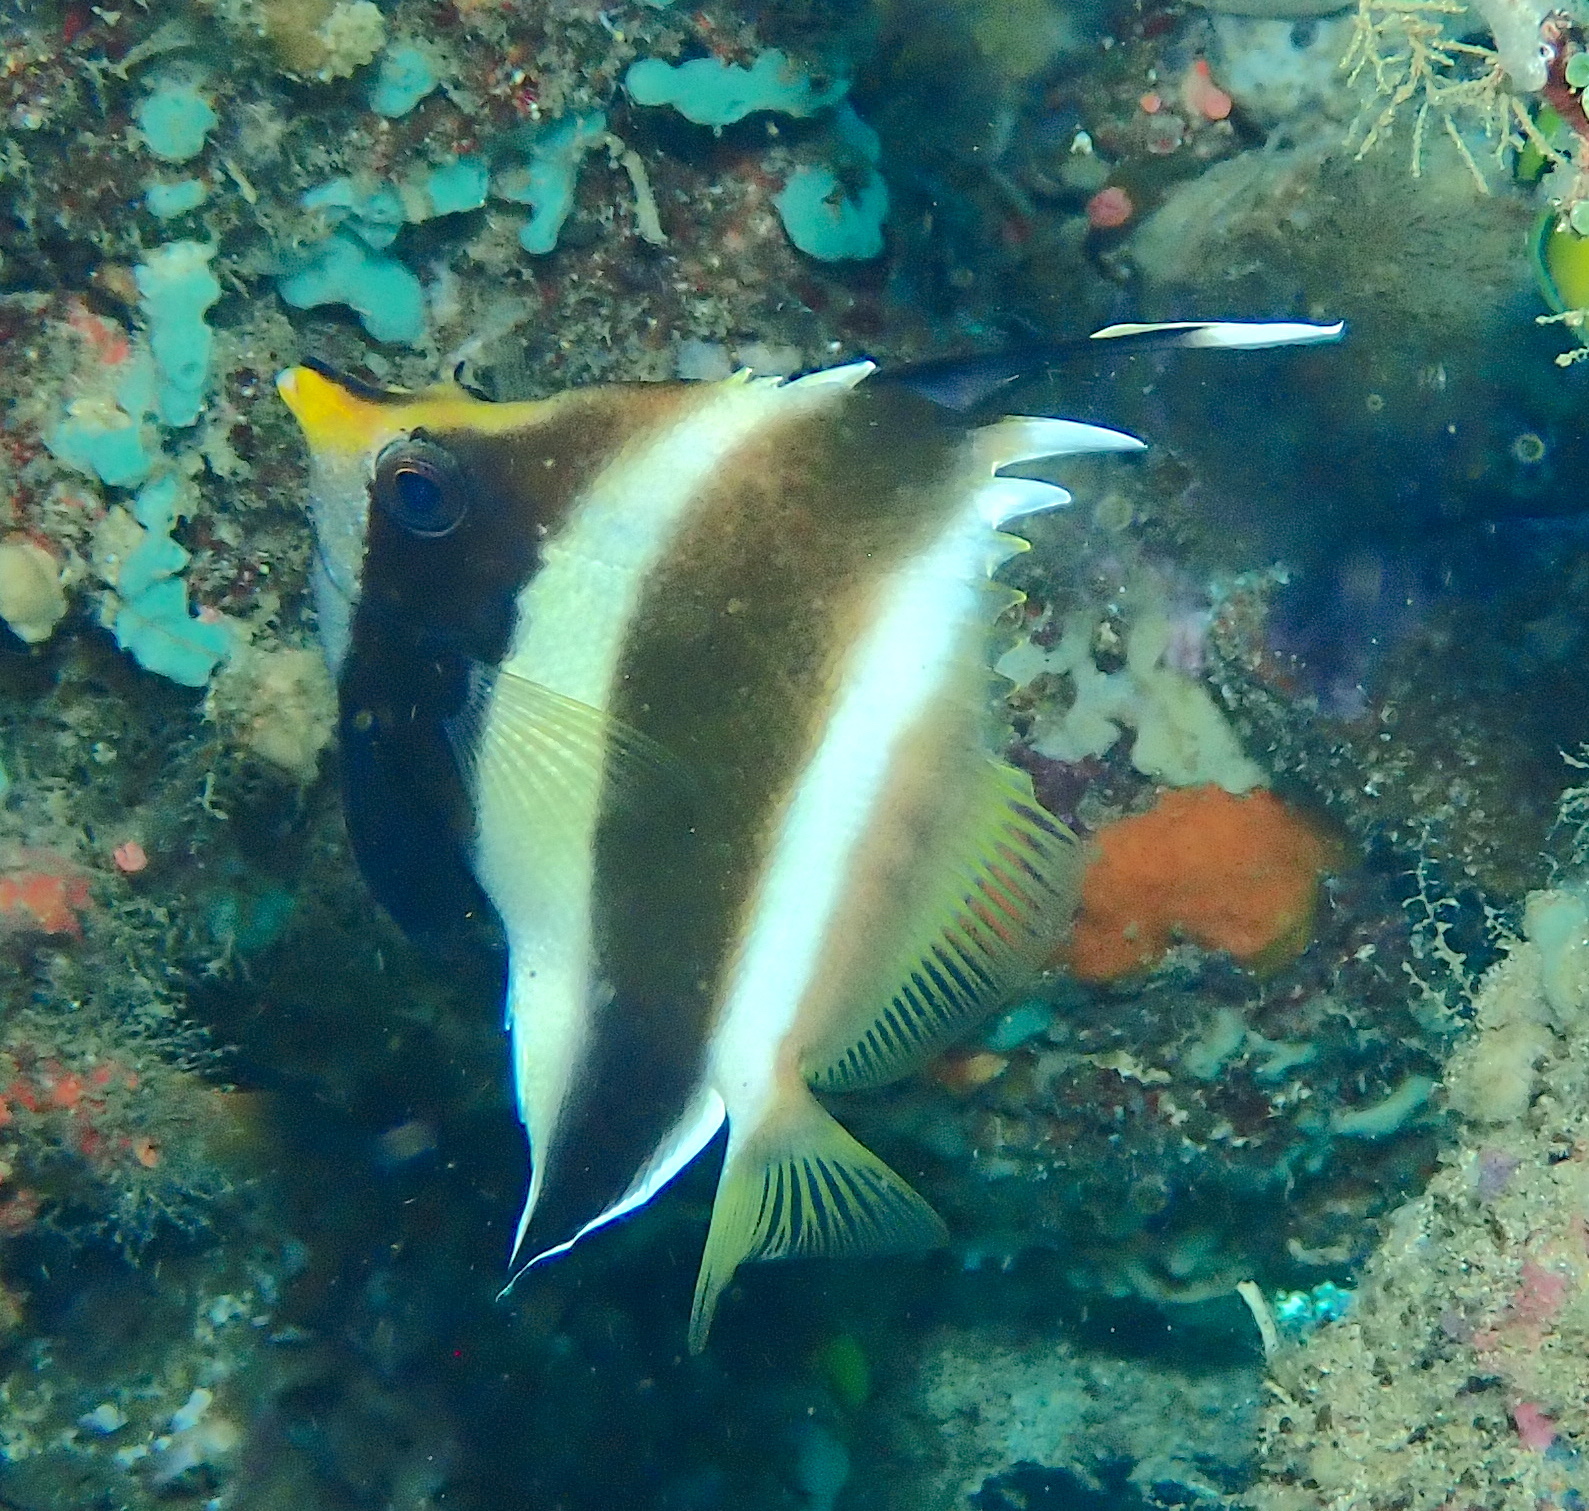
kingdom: Animalia
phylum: Chordata
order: Perciformes
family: Chaetodontidae
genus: Heniochus
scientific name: Heniochus chrysostomus
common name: Horned bannerfish
